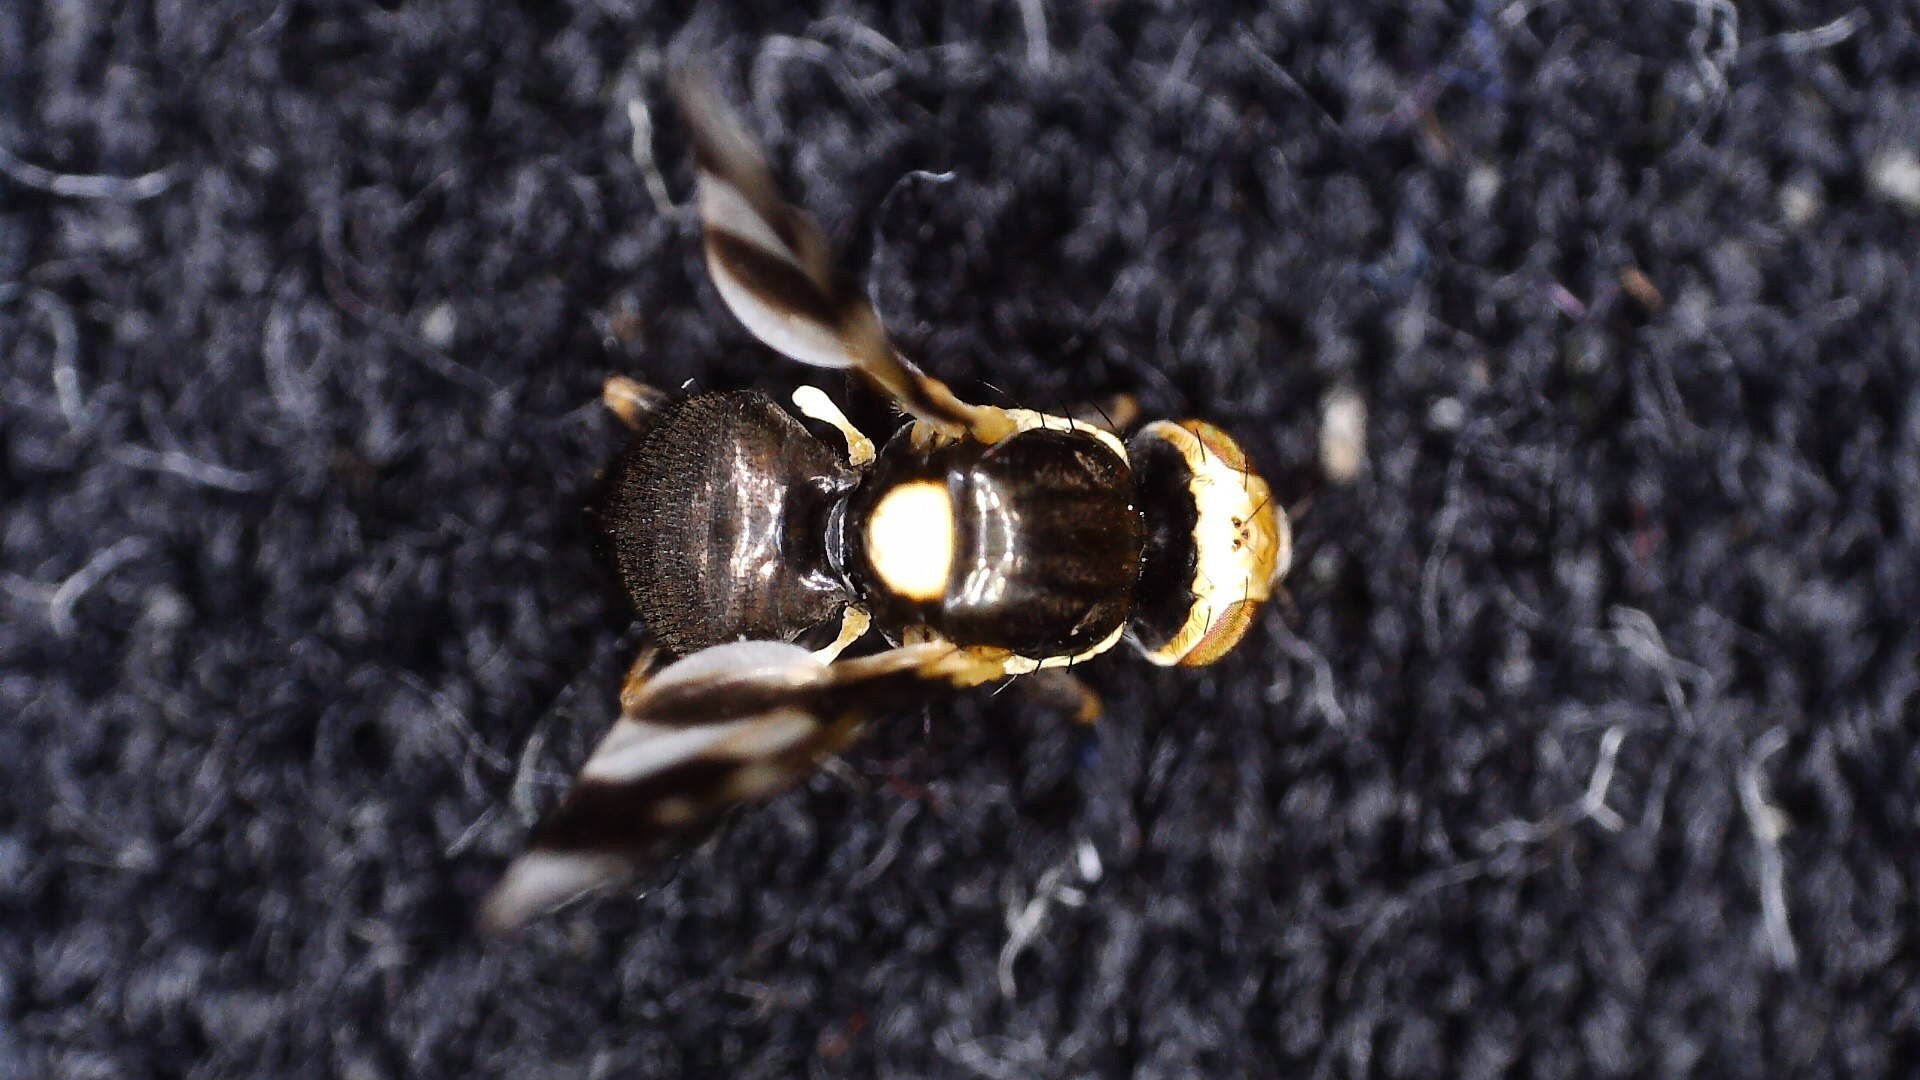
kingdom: Animalia
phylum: Arthropoda
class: Insecta
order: Diptera
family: Tephritidae
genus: Urophora
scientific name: Urophora cardui
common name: Fruit fly
